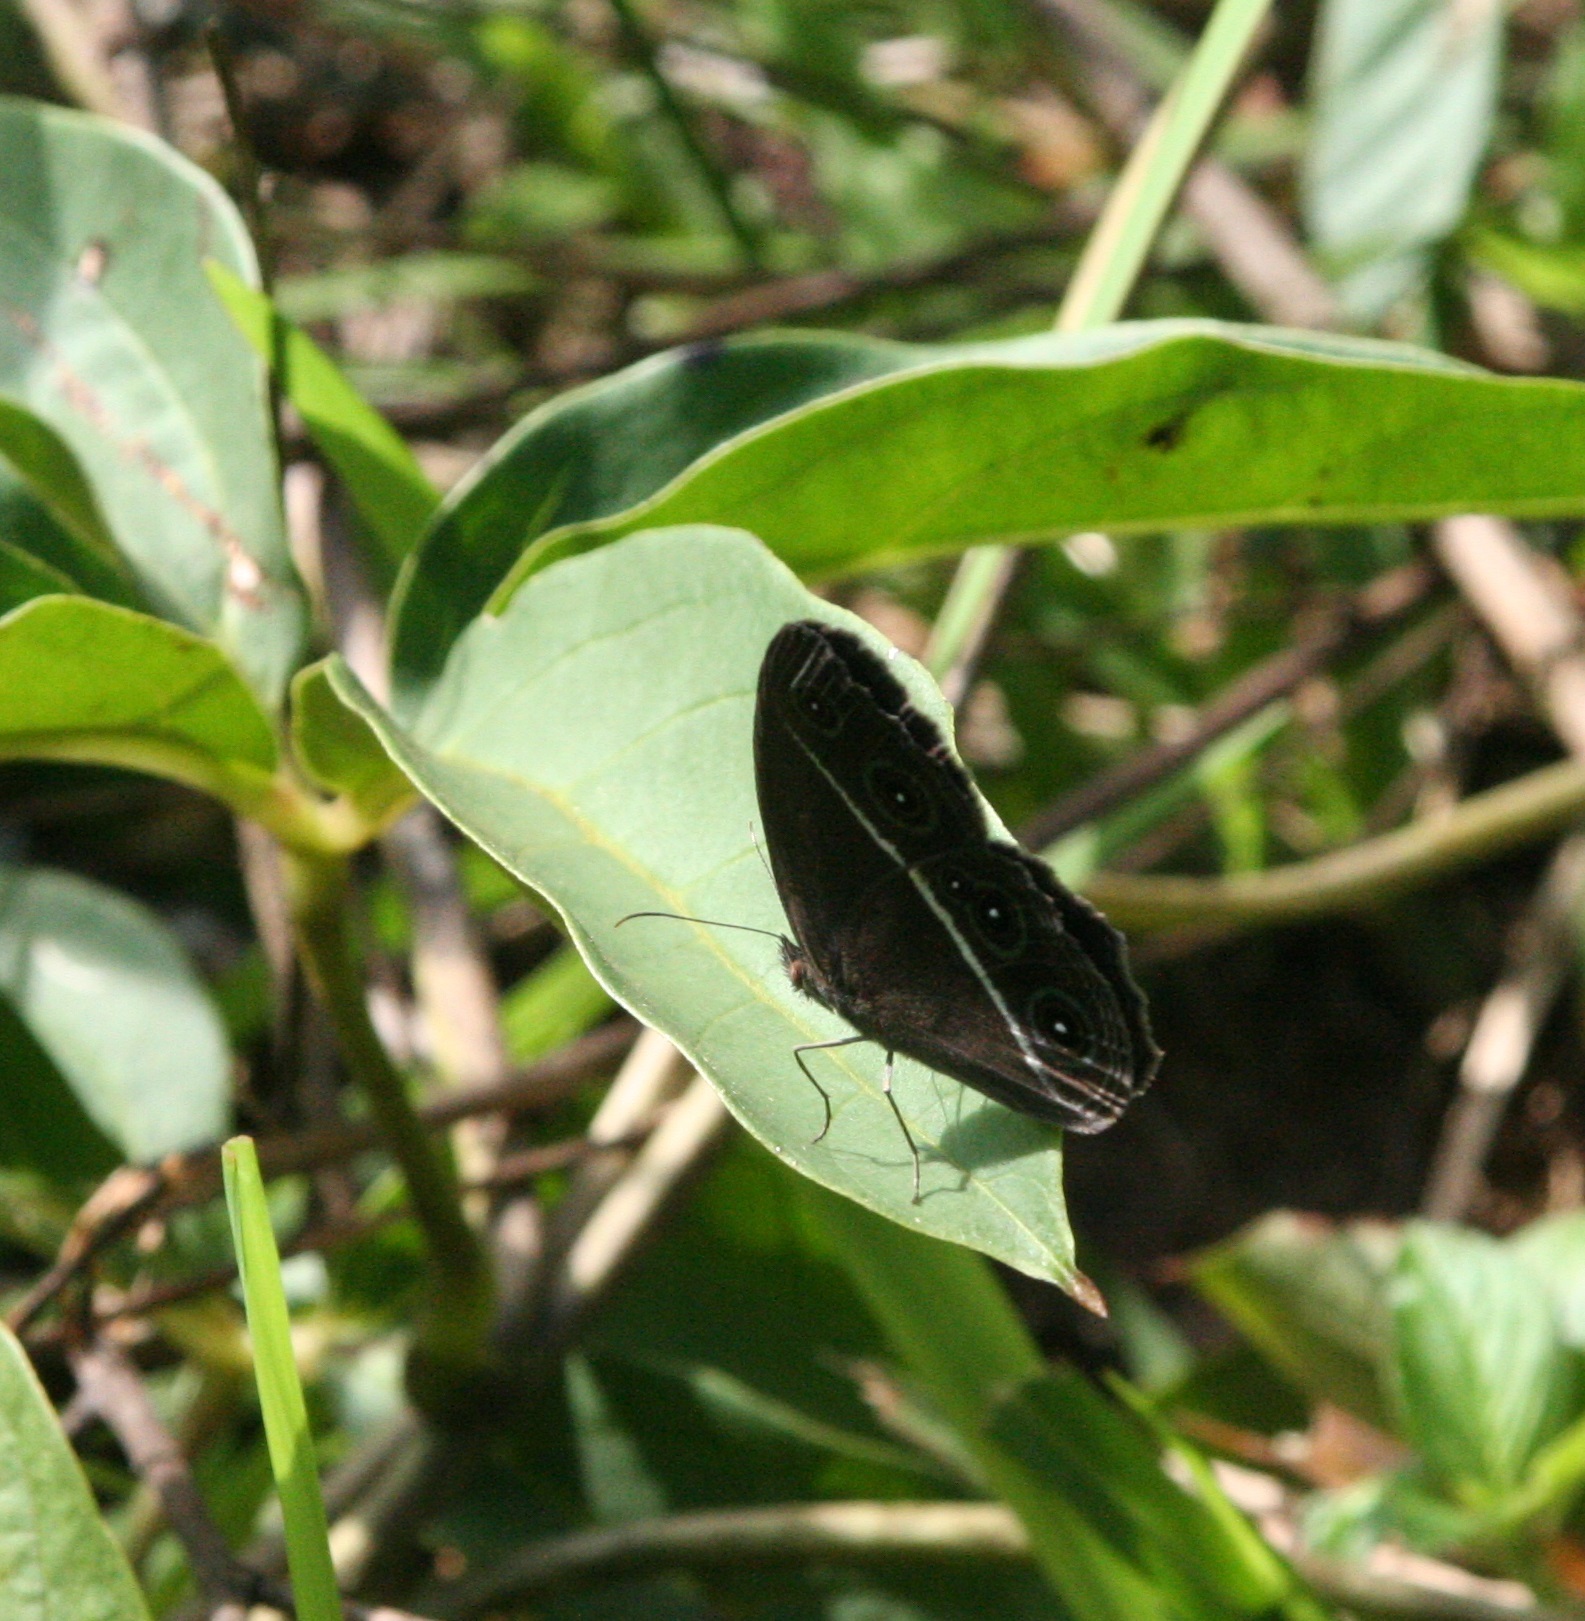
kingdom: Animalia
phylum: Arthropoda
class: Insecta
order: Lepidoptera
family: Nymphalidae
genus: Orsotriaena
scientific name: Orsotriaena medus
